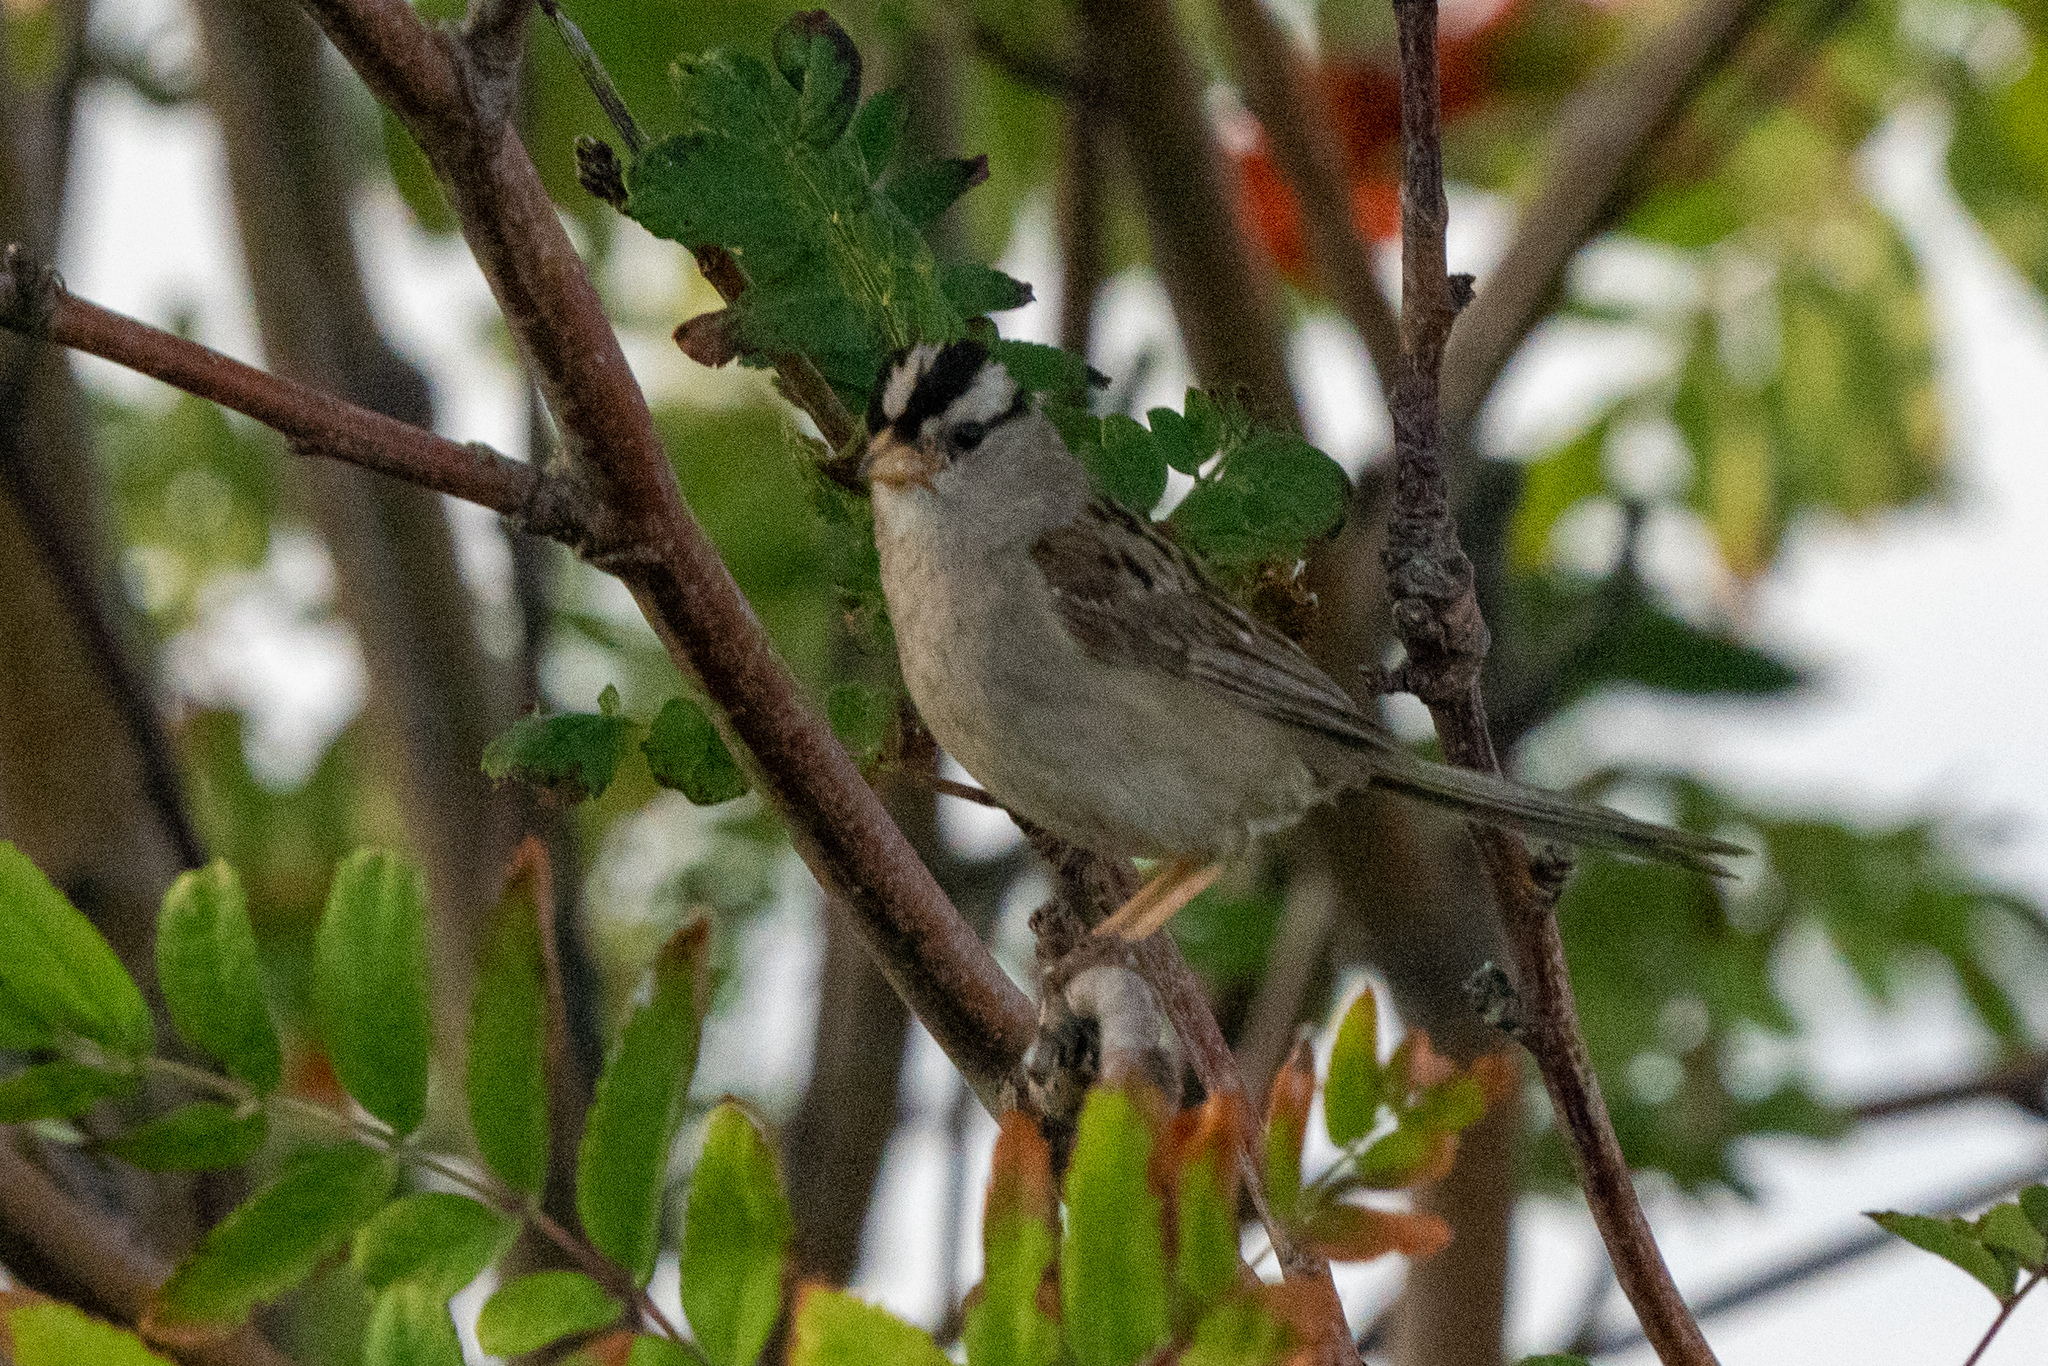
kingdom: Animalia
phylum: Chordata
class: Aves
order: Passeriformes
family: Passerellidae
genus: Zonotrichia
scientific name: Zonotrichia leucophrys
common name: White-crowned sparrow
